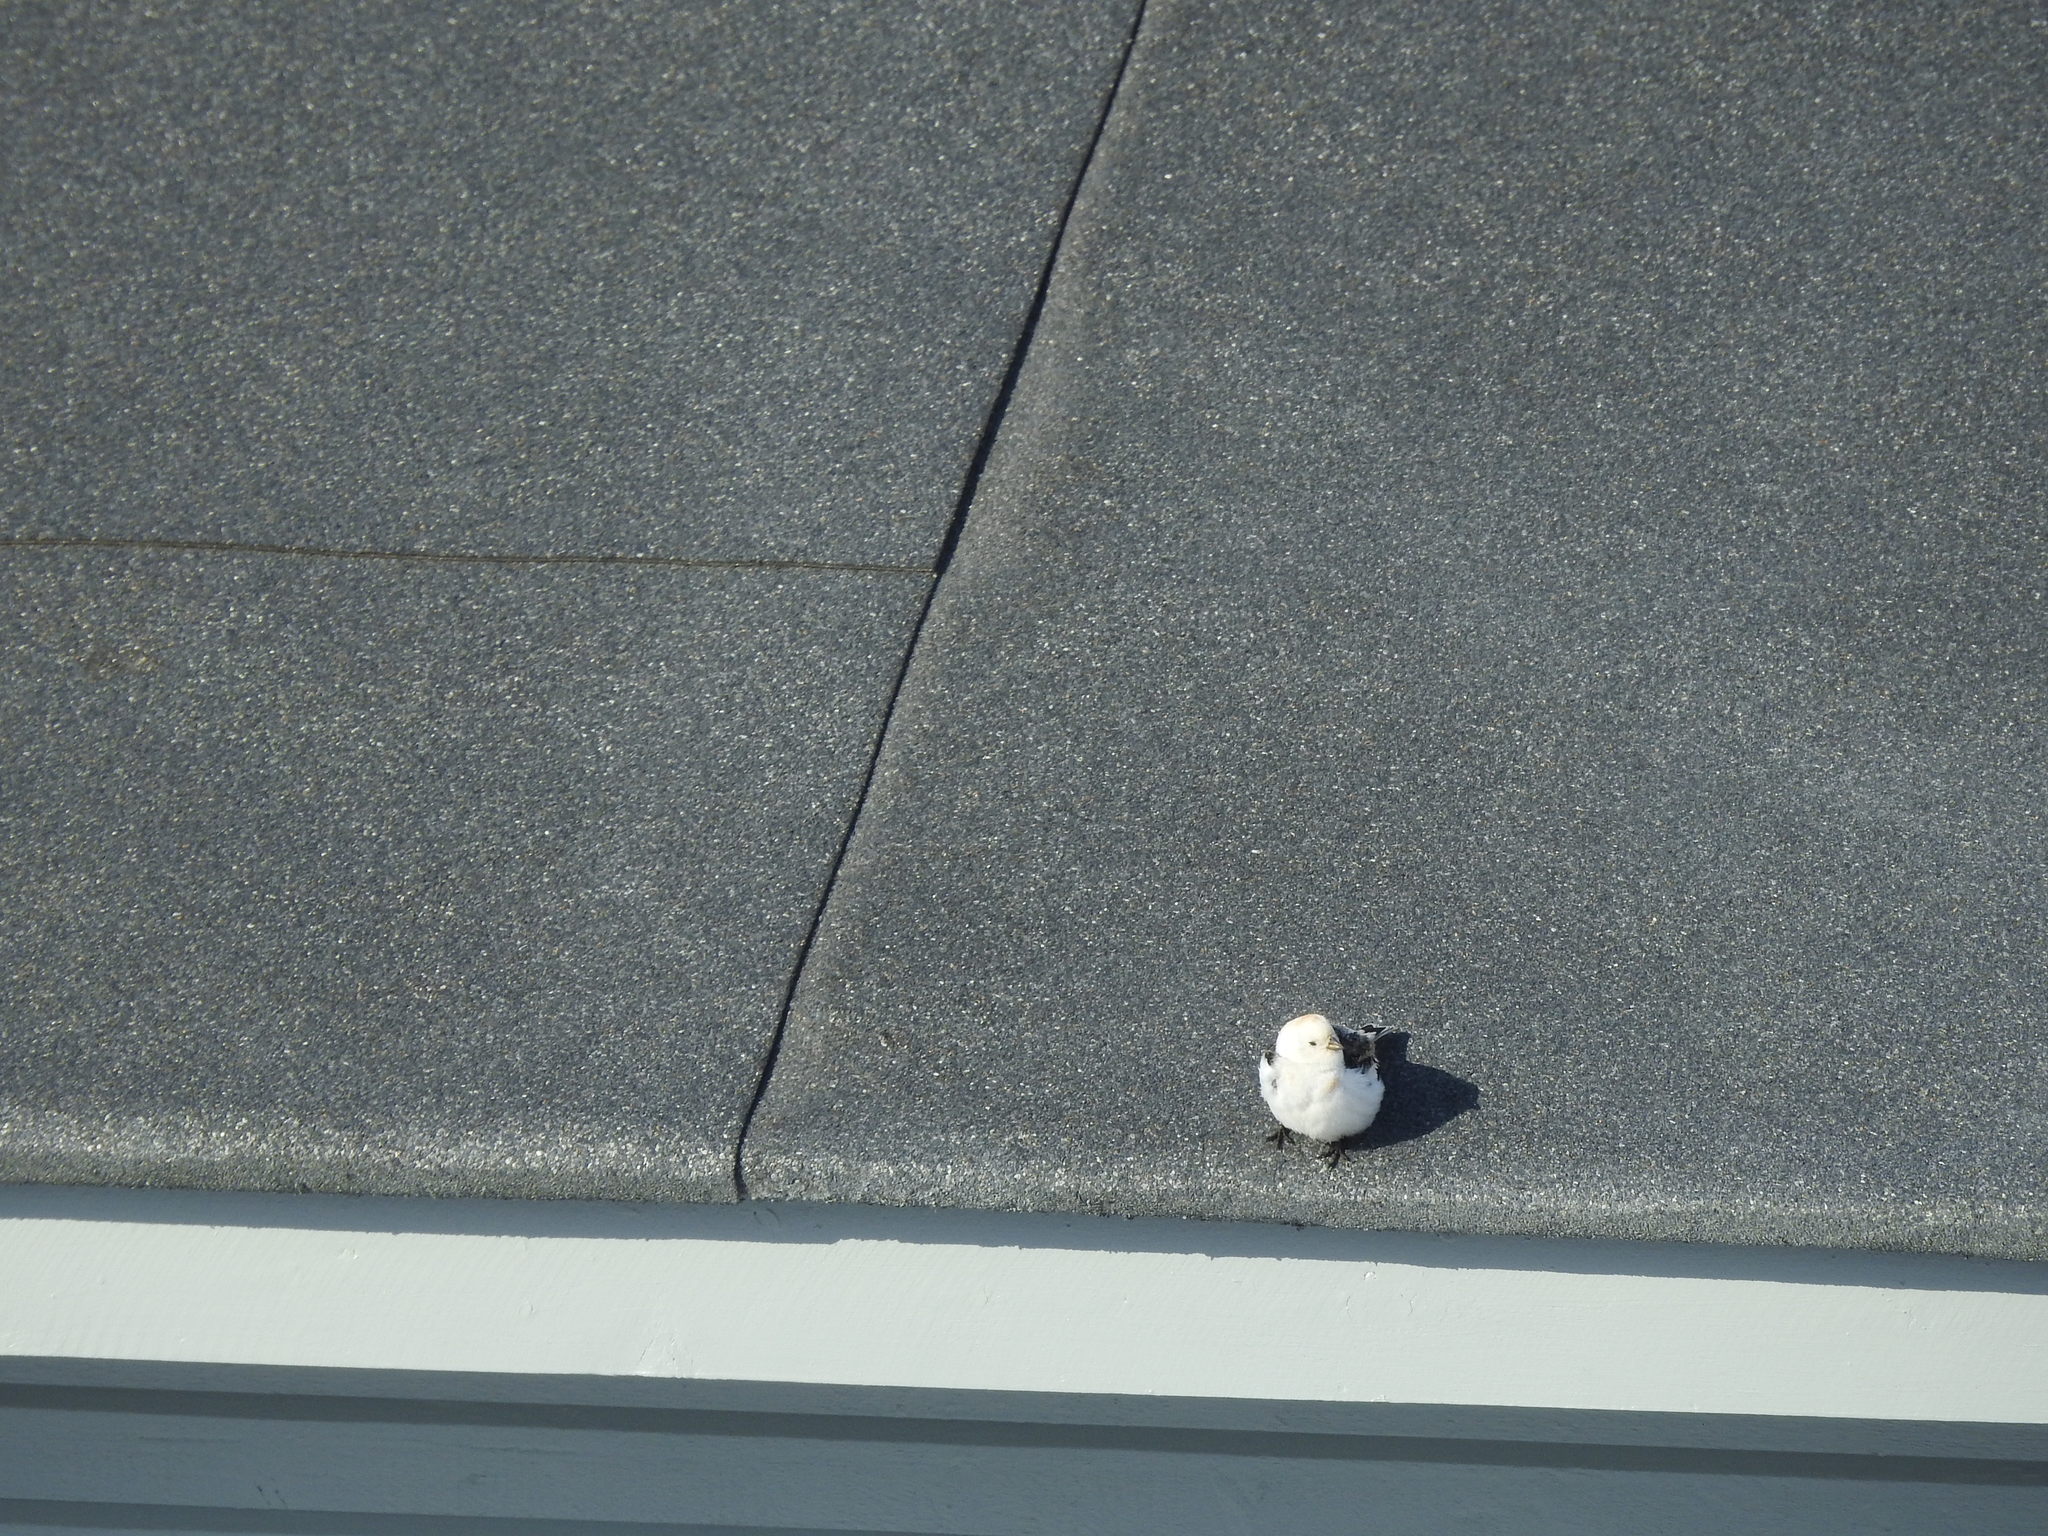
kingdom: Animalia
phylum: Chordata
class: Aves
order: Passeriformes
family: Calcariidae
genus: Plectrophenax
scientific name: Plectrophenax nivalis
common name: Snow bunting
